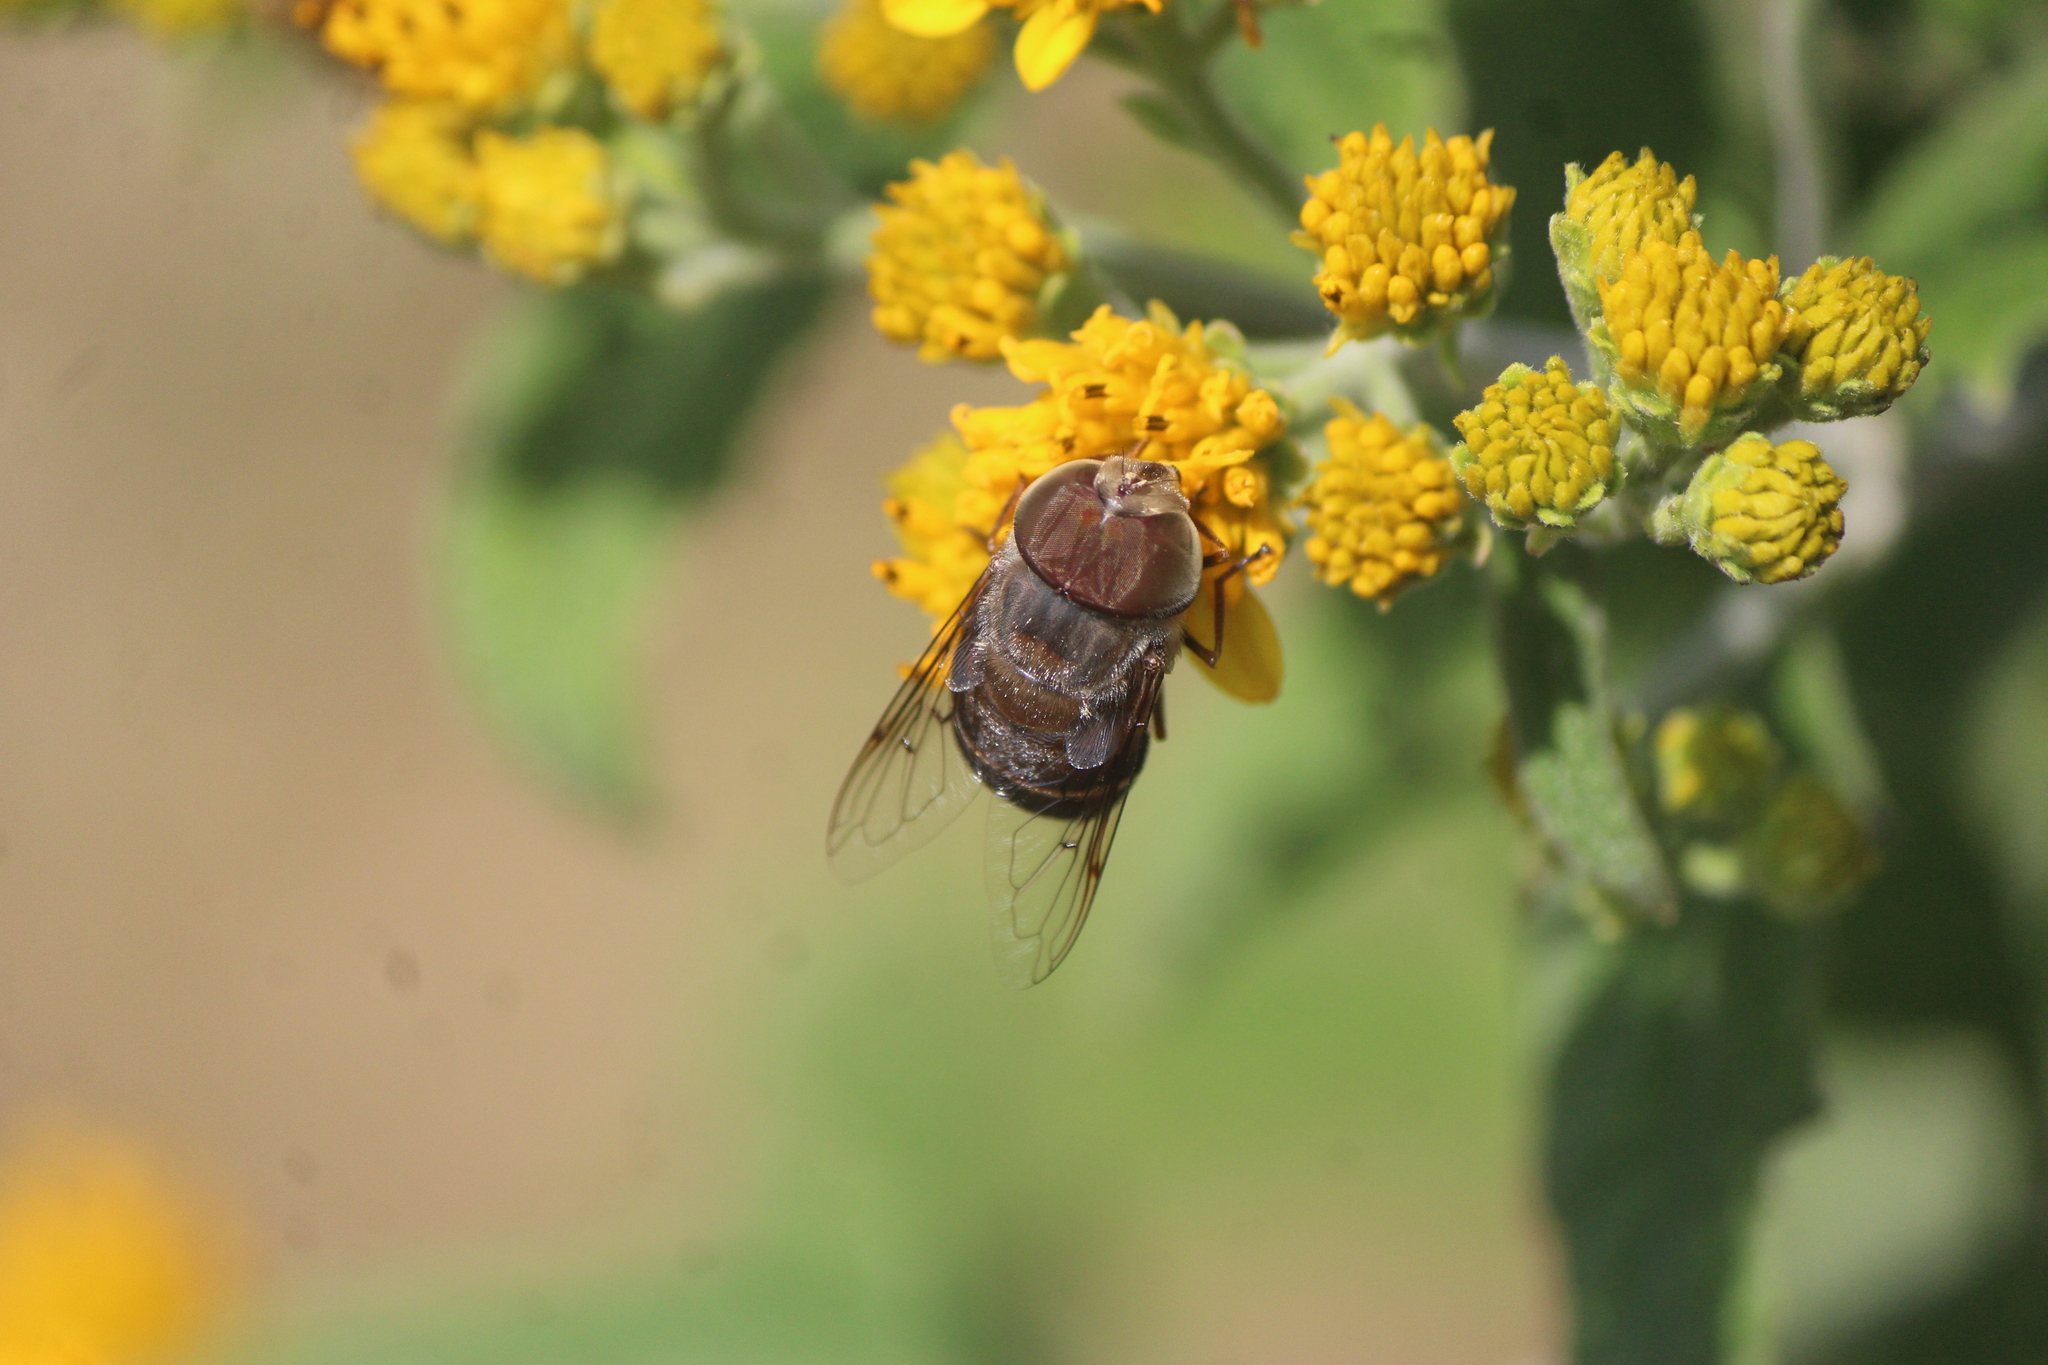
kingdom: Animalia
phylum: Arthropoda
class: Insecta
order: Diptera
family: Syrphidae
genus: Copestylum
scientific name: Copestylum macrocephalum
